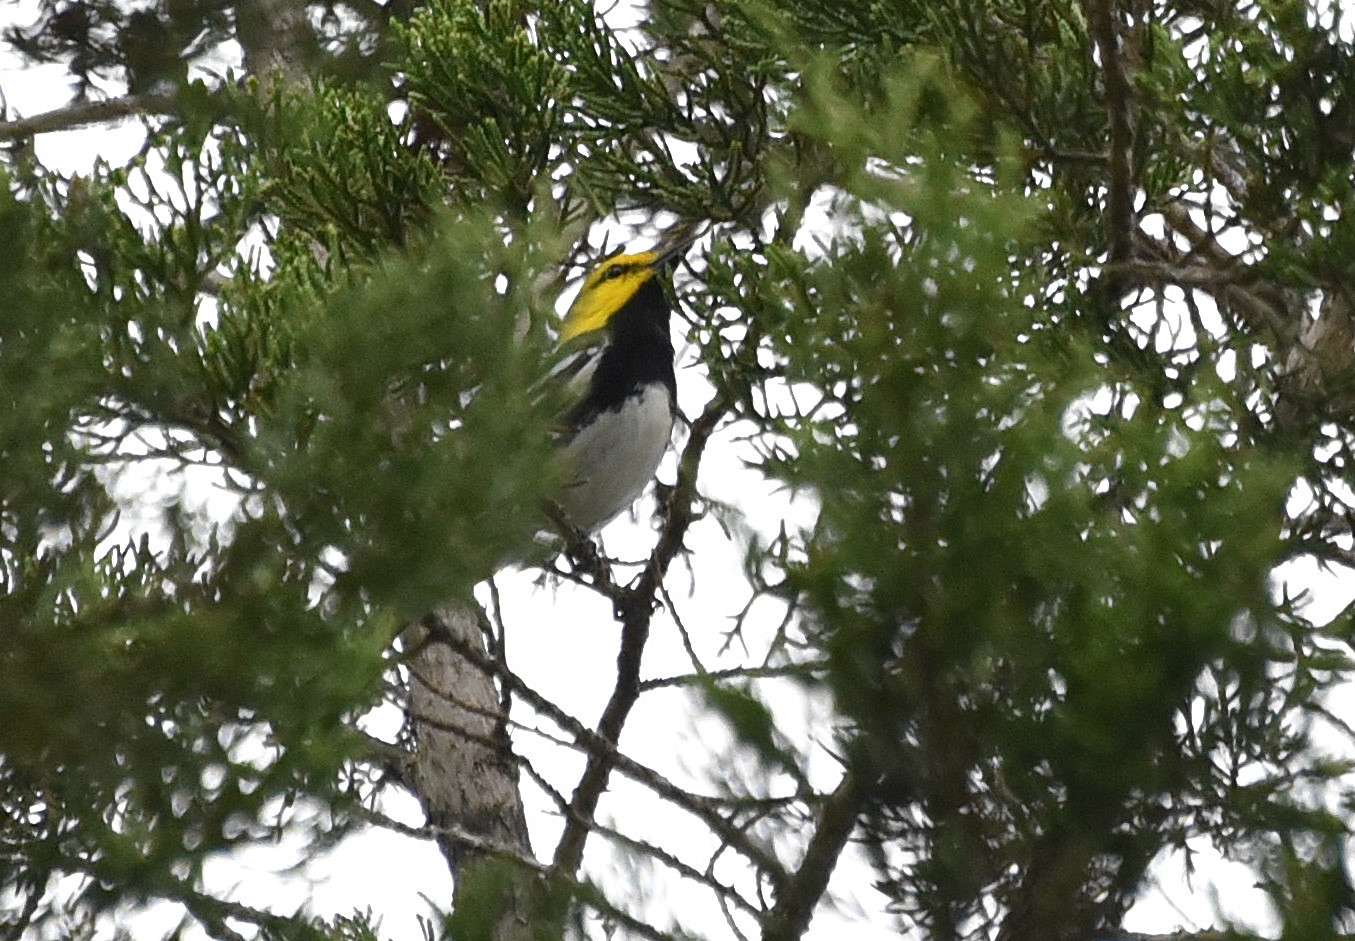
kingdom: Animalia
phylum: Chordata
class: Aves
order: Passeriformes
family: Parulidae
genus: Setophaga
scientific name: Setophaga chrysoparia
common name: Golden-cheeked warbler
